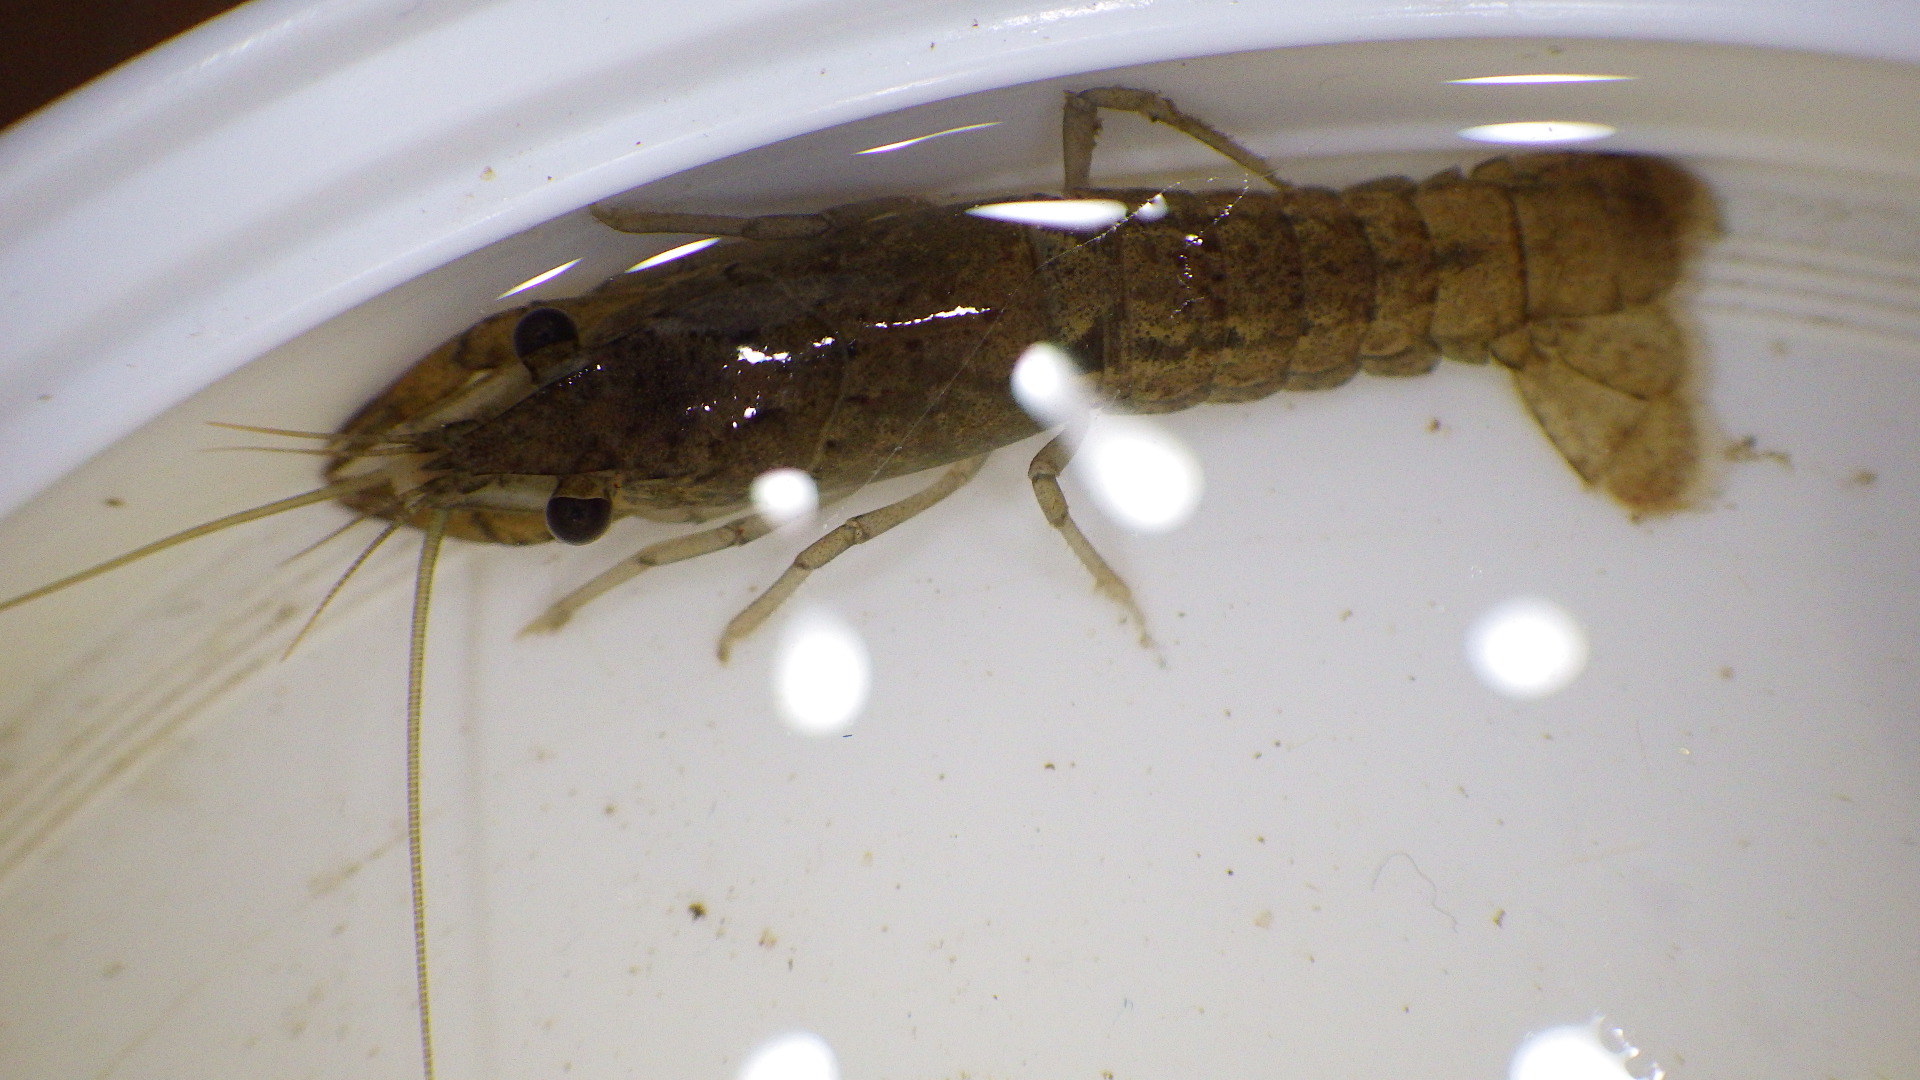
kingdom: Animalia
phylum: Arthropoda
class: Malacostraca
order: Decapoda
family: Cambaridae
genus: Procambarus
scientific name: Procambarus clarkii
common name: Red swamp crayfish
